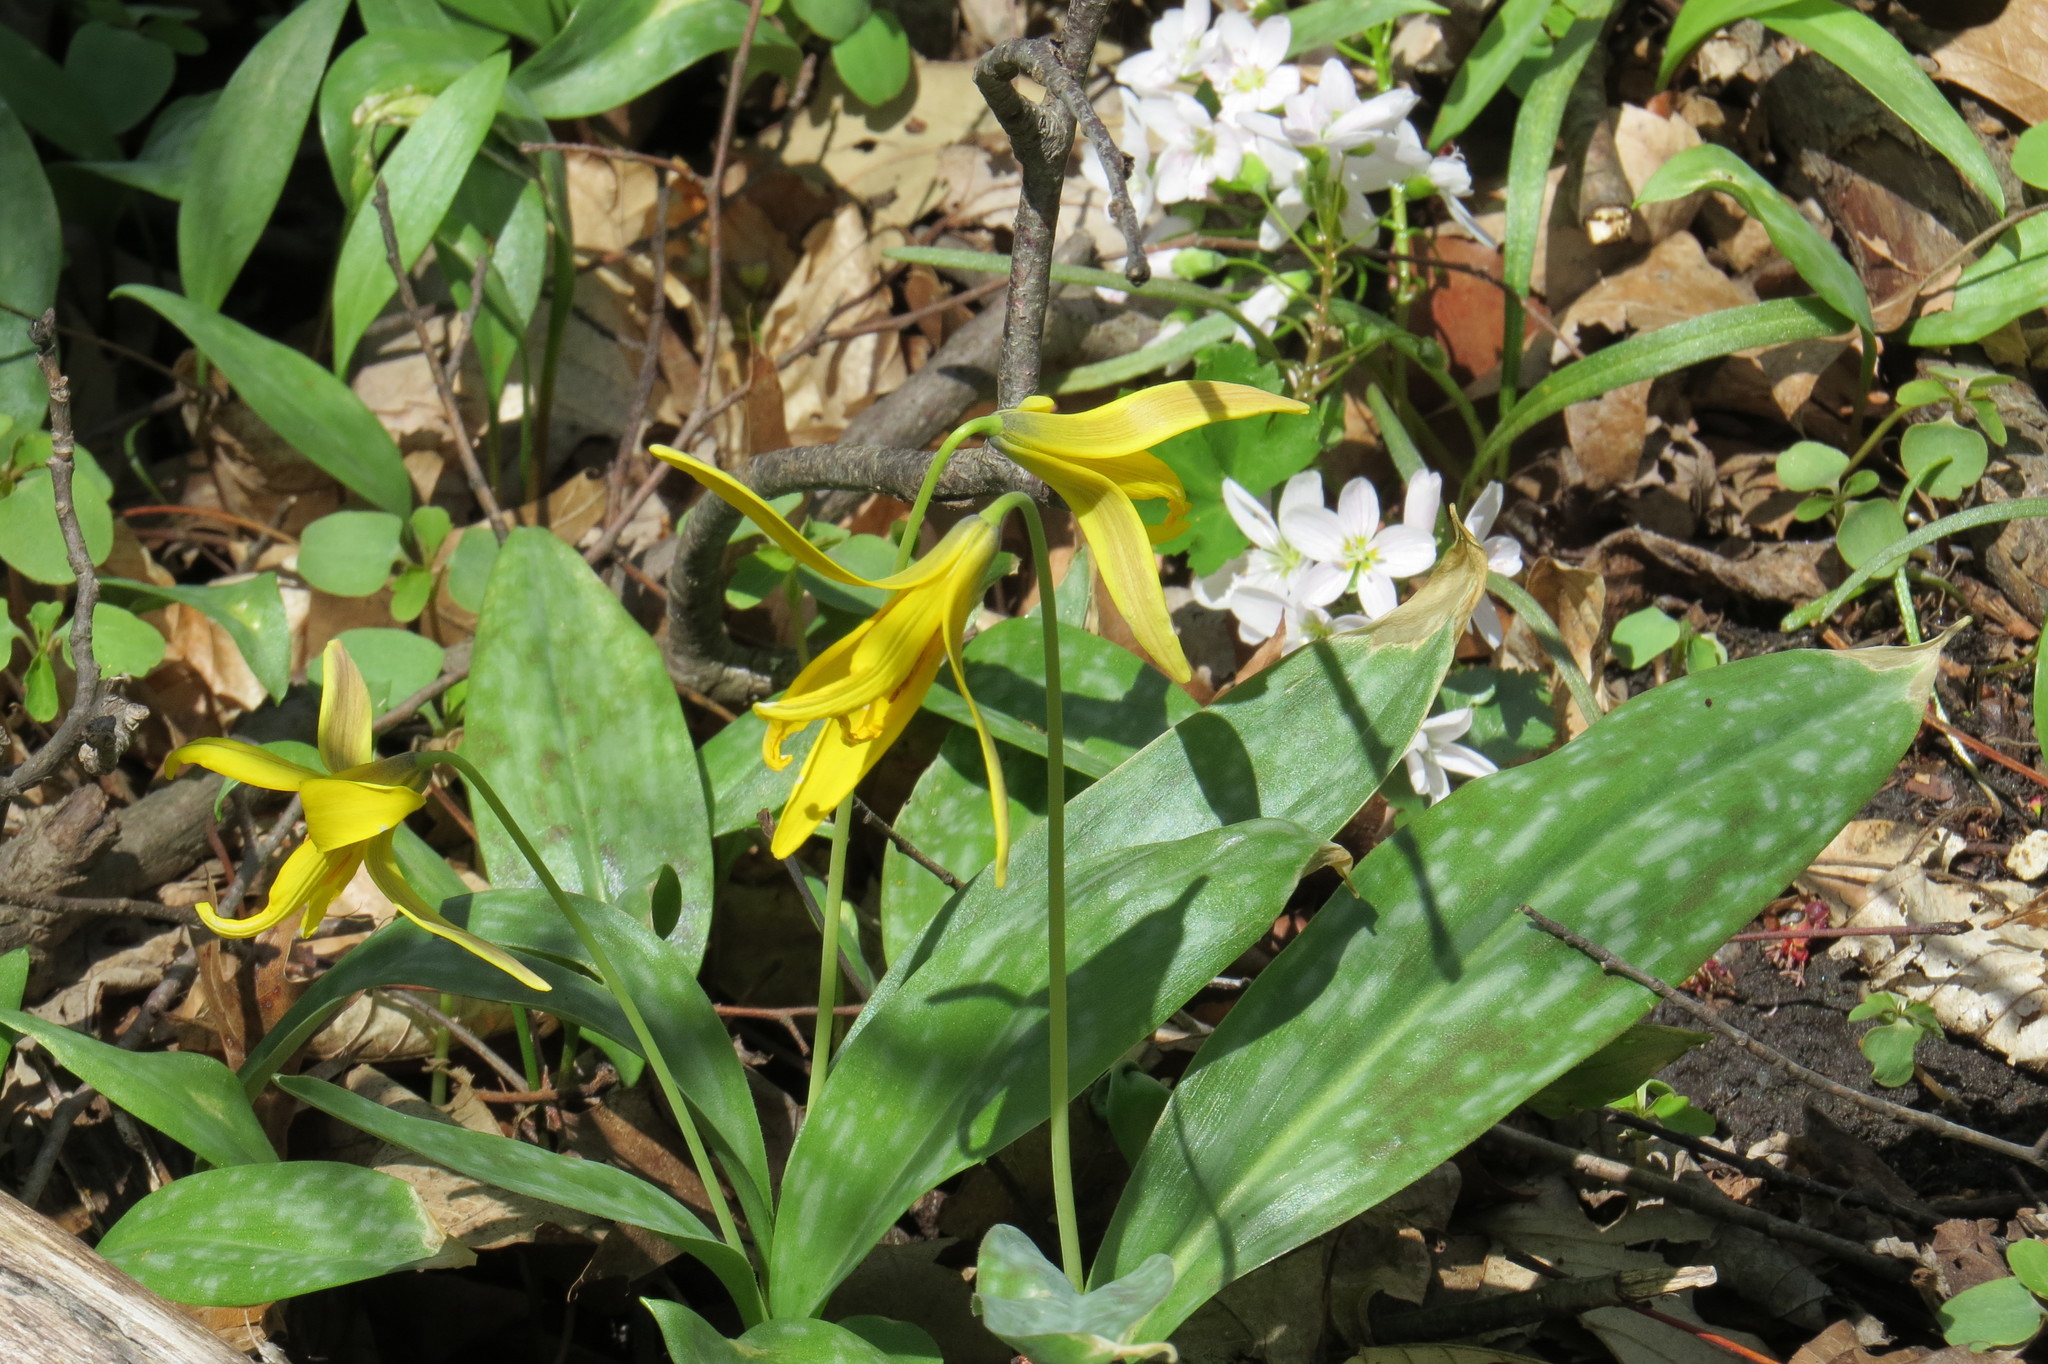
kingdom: Plantae
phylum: Tracheophyta
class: Liliopsida
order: Liliales
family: Liliaceae
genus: Erythronium
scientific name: Erythronium americanum
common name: Yellow adder's-tongue
